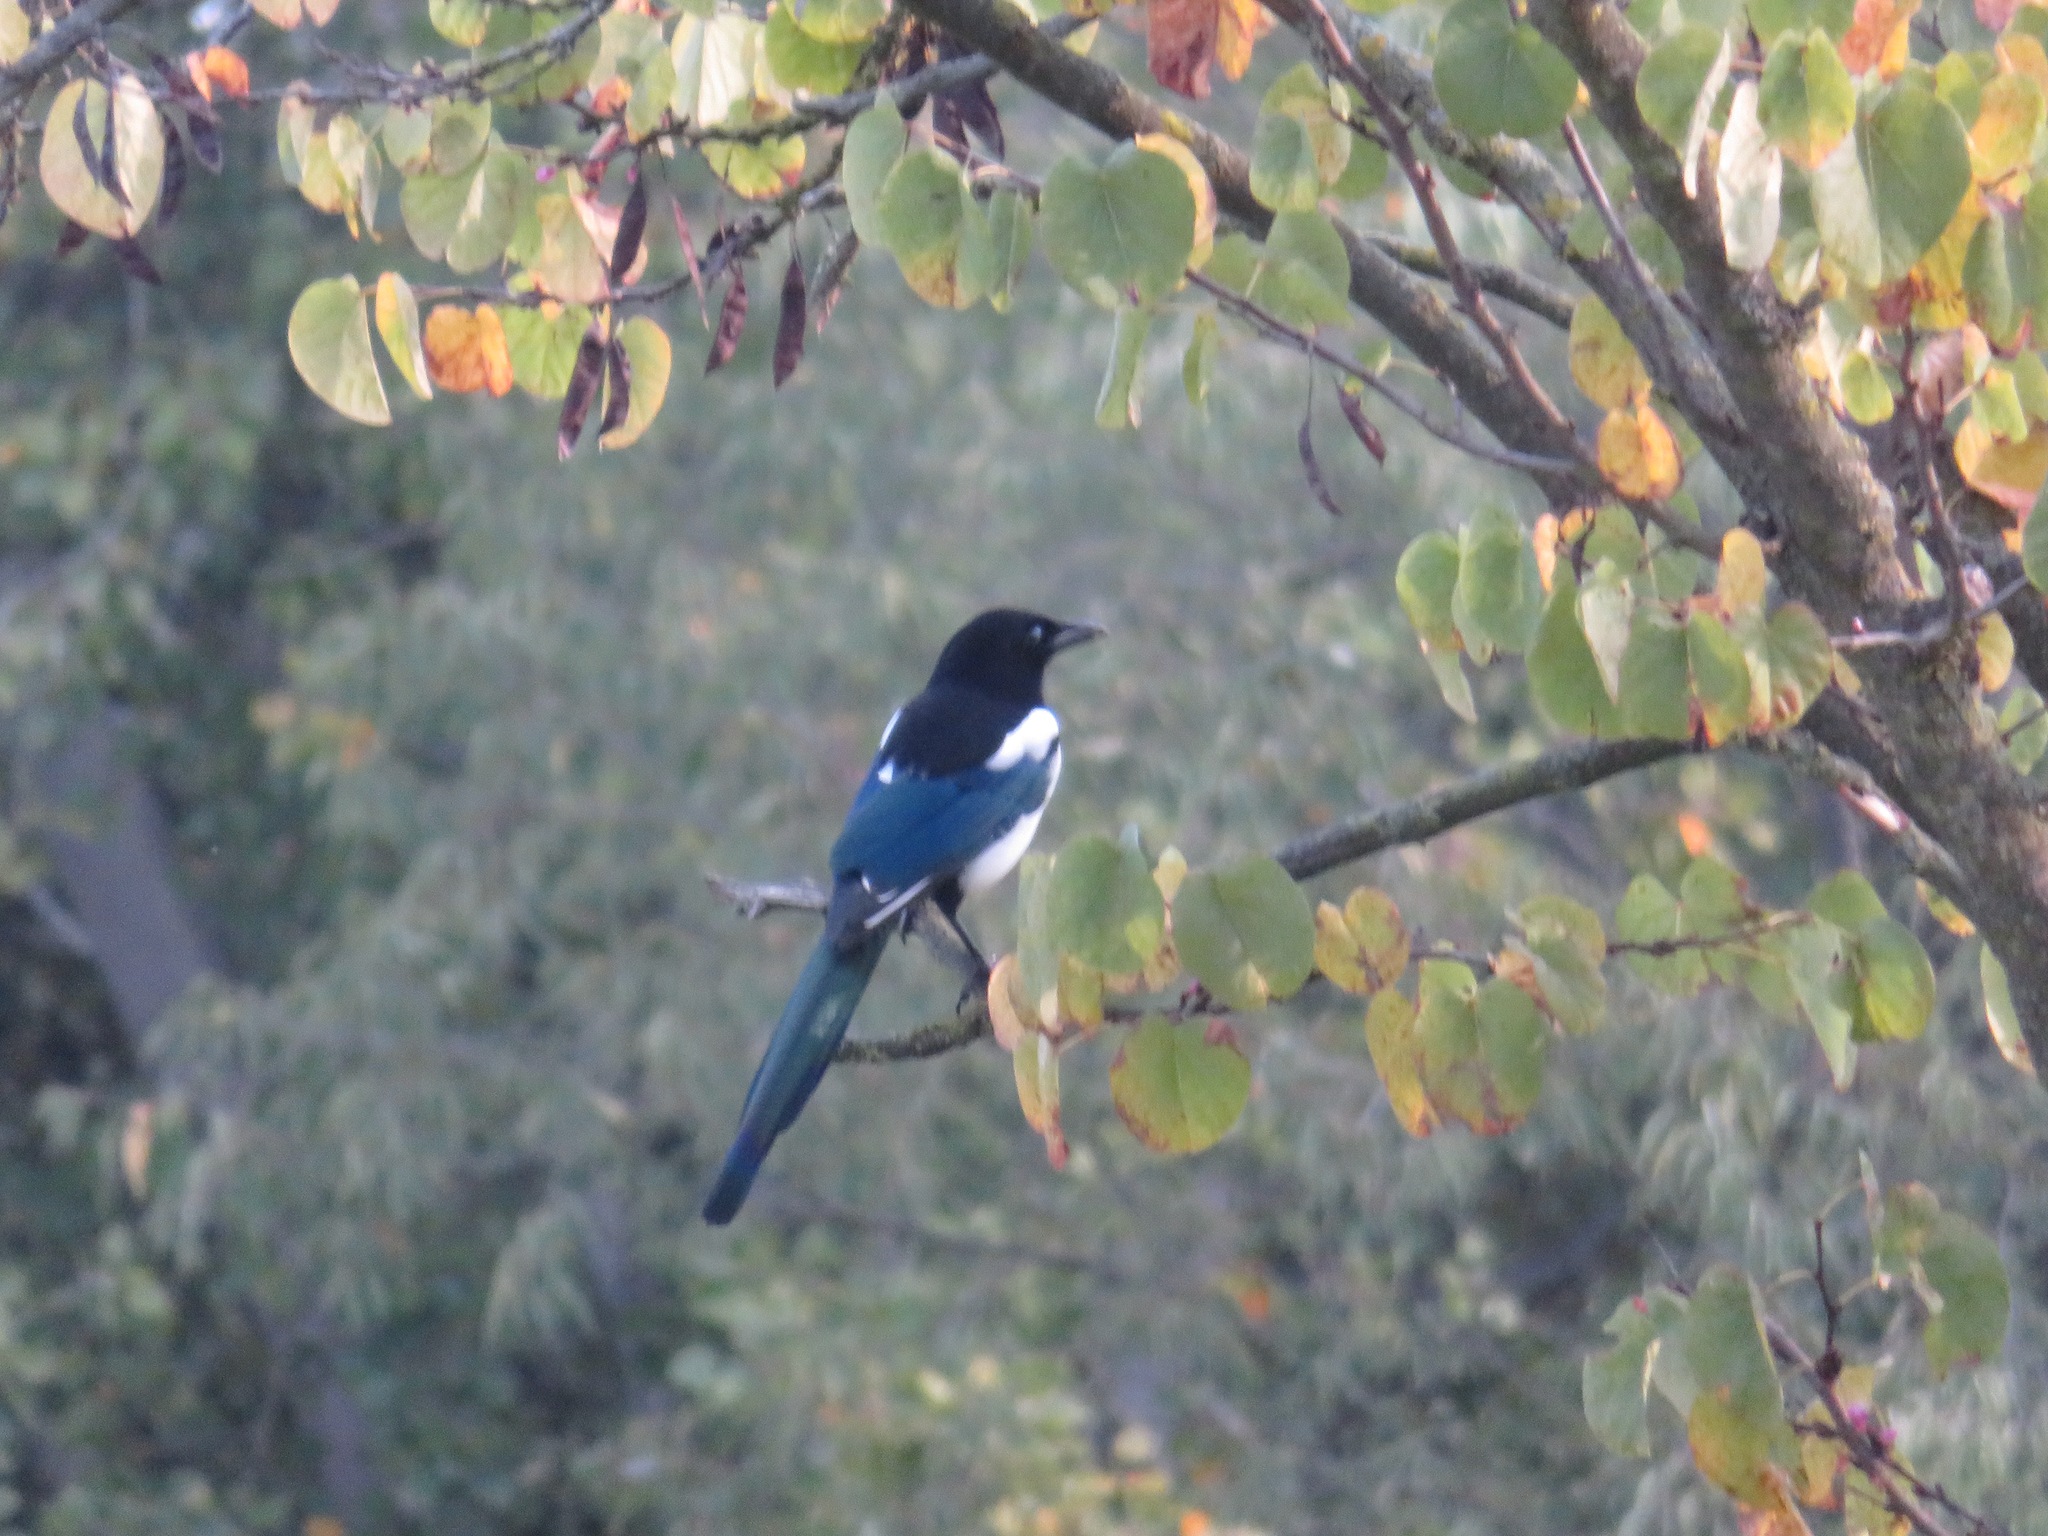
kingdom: Animalia
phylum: Chordata
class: Aves
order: Passeriformes
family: Corvidae
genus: Pica
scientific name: Pica pica
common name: Eurasian magpie
